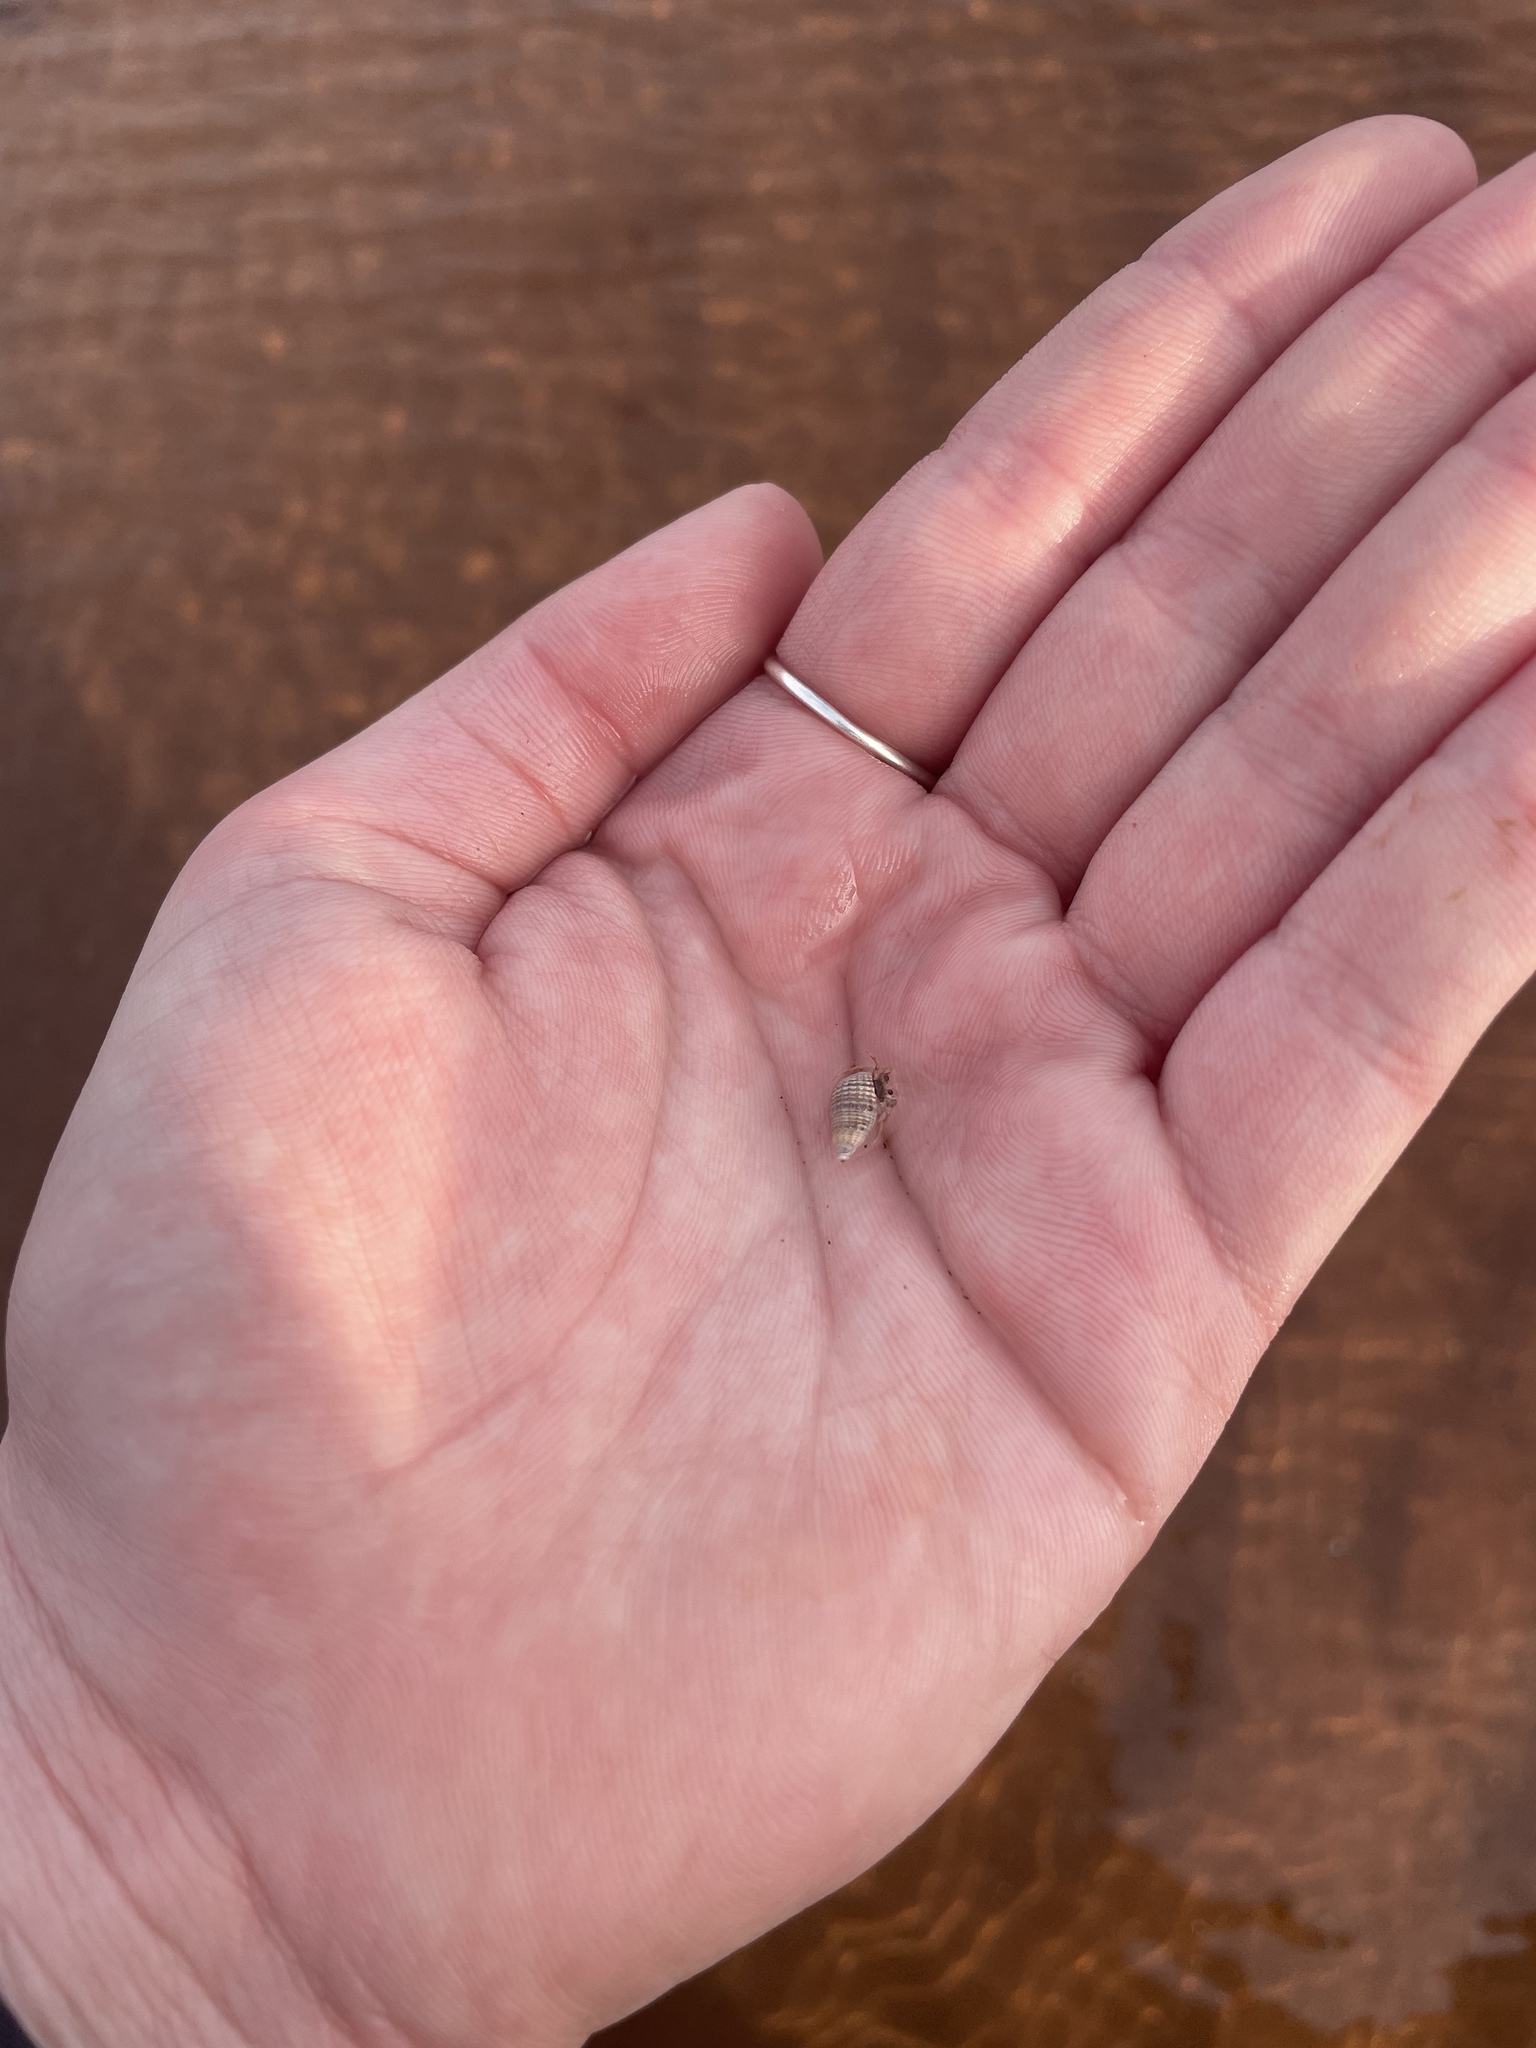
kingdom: Animalia
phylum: Mollusca
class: Gastropoda
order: Neogastropoda
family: Nassariidae
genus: Ilyanassa
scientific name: Ilyanassa trivittata
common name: Three-line mudsnail
